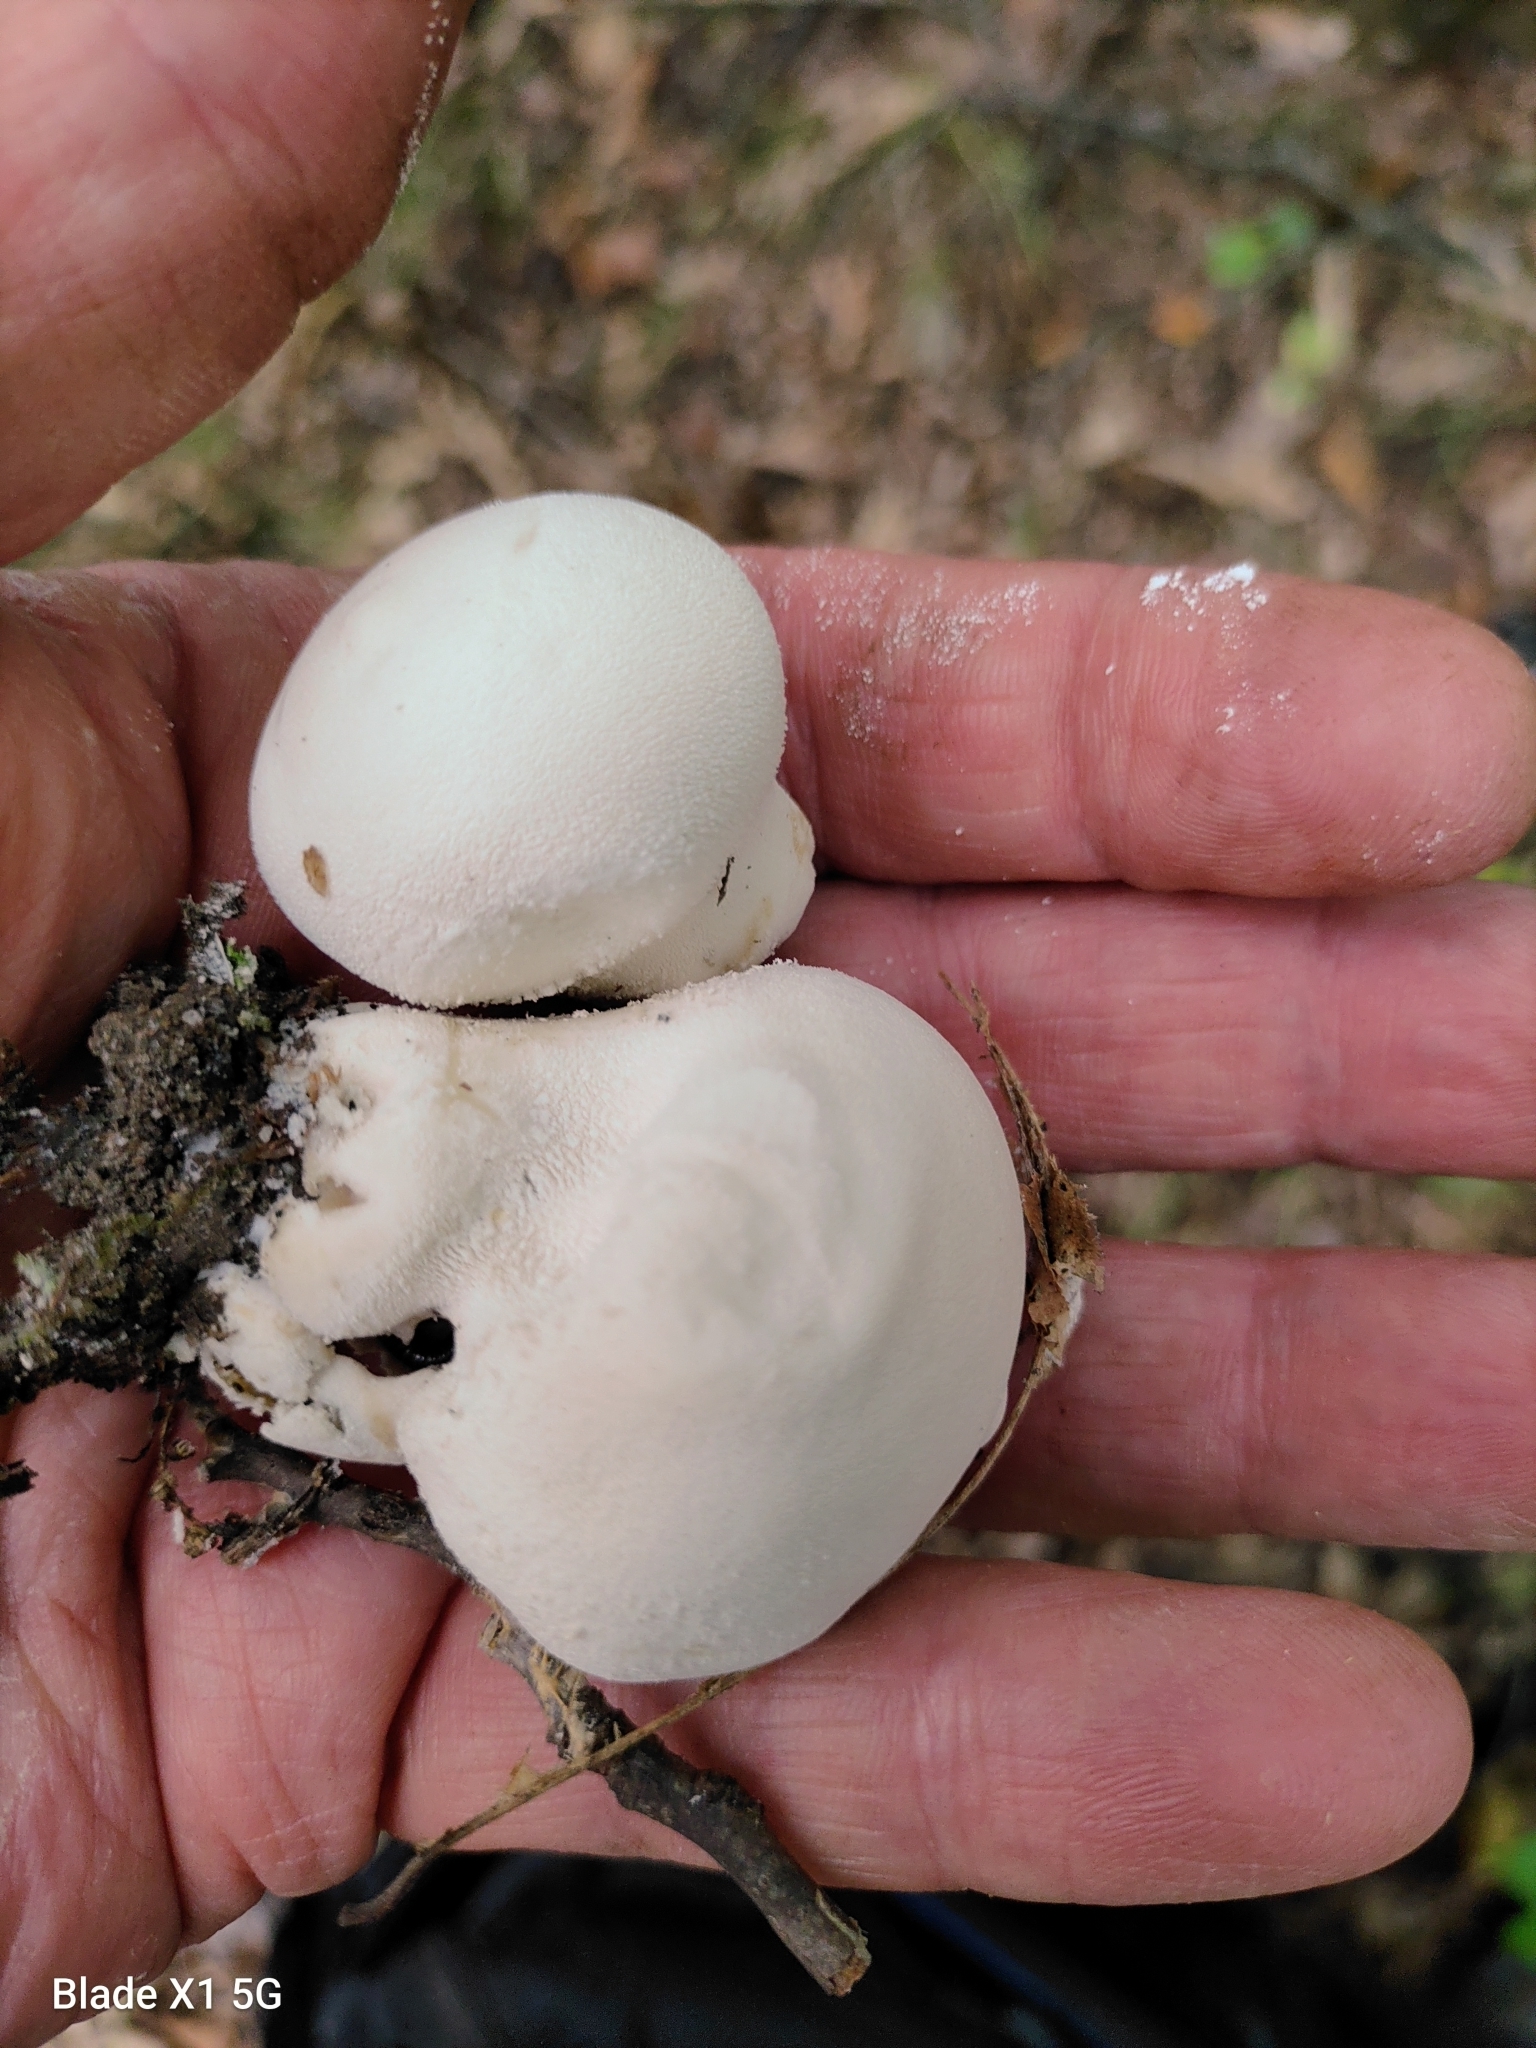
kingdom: Fungi
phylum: Basidiomycota
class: Agaricomycetes
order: Agaricales
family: Lycoperdaceae
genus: Lycoperdon
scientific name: Lycoperdon mammiforme
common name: Flaky puffball
